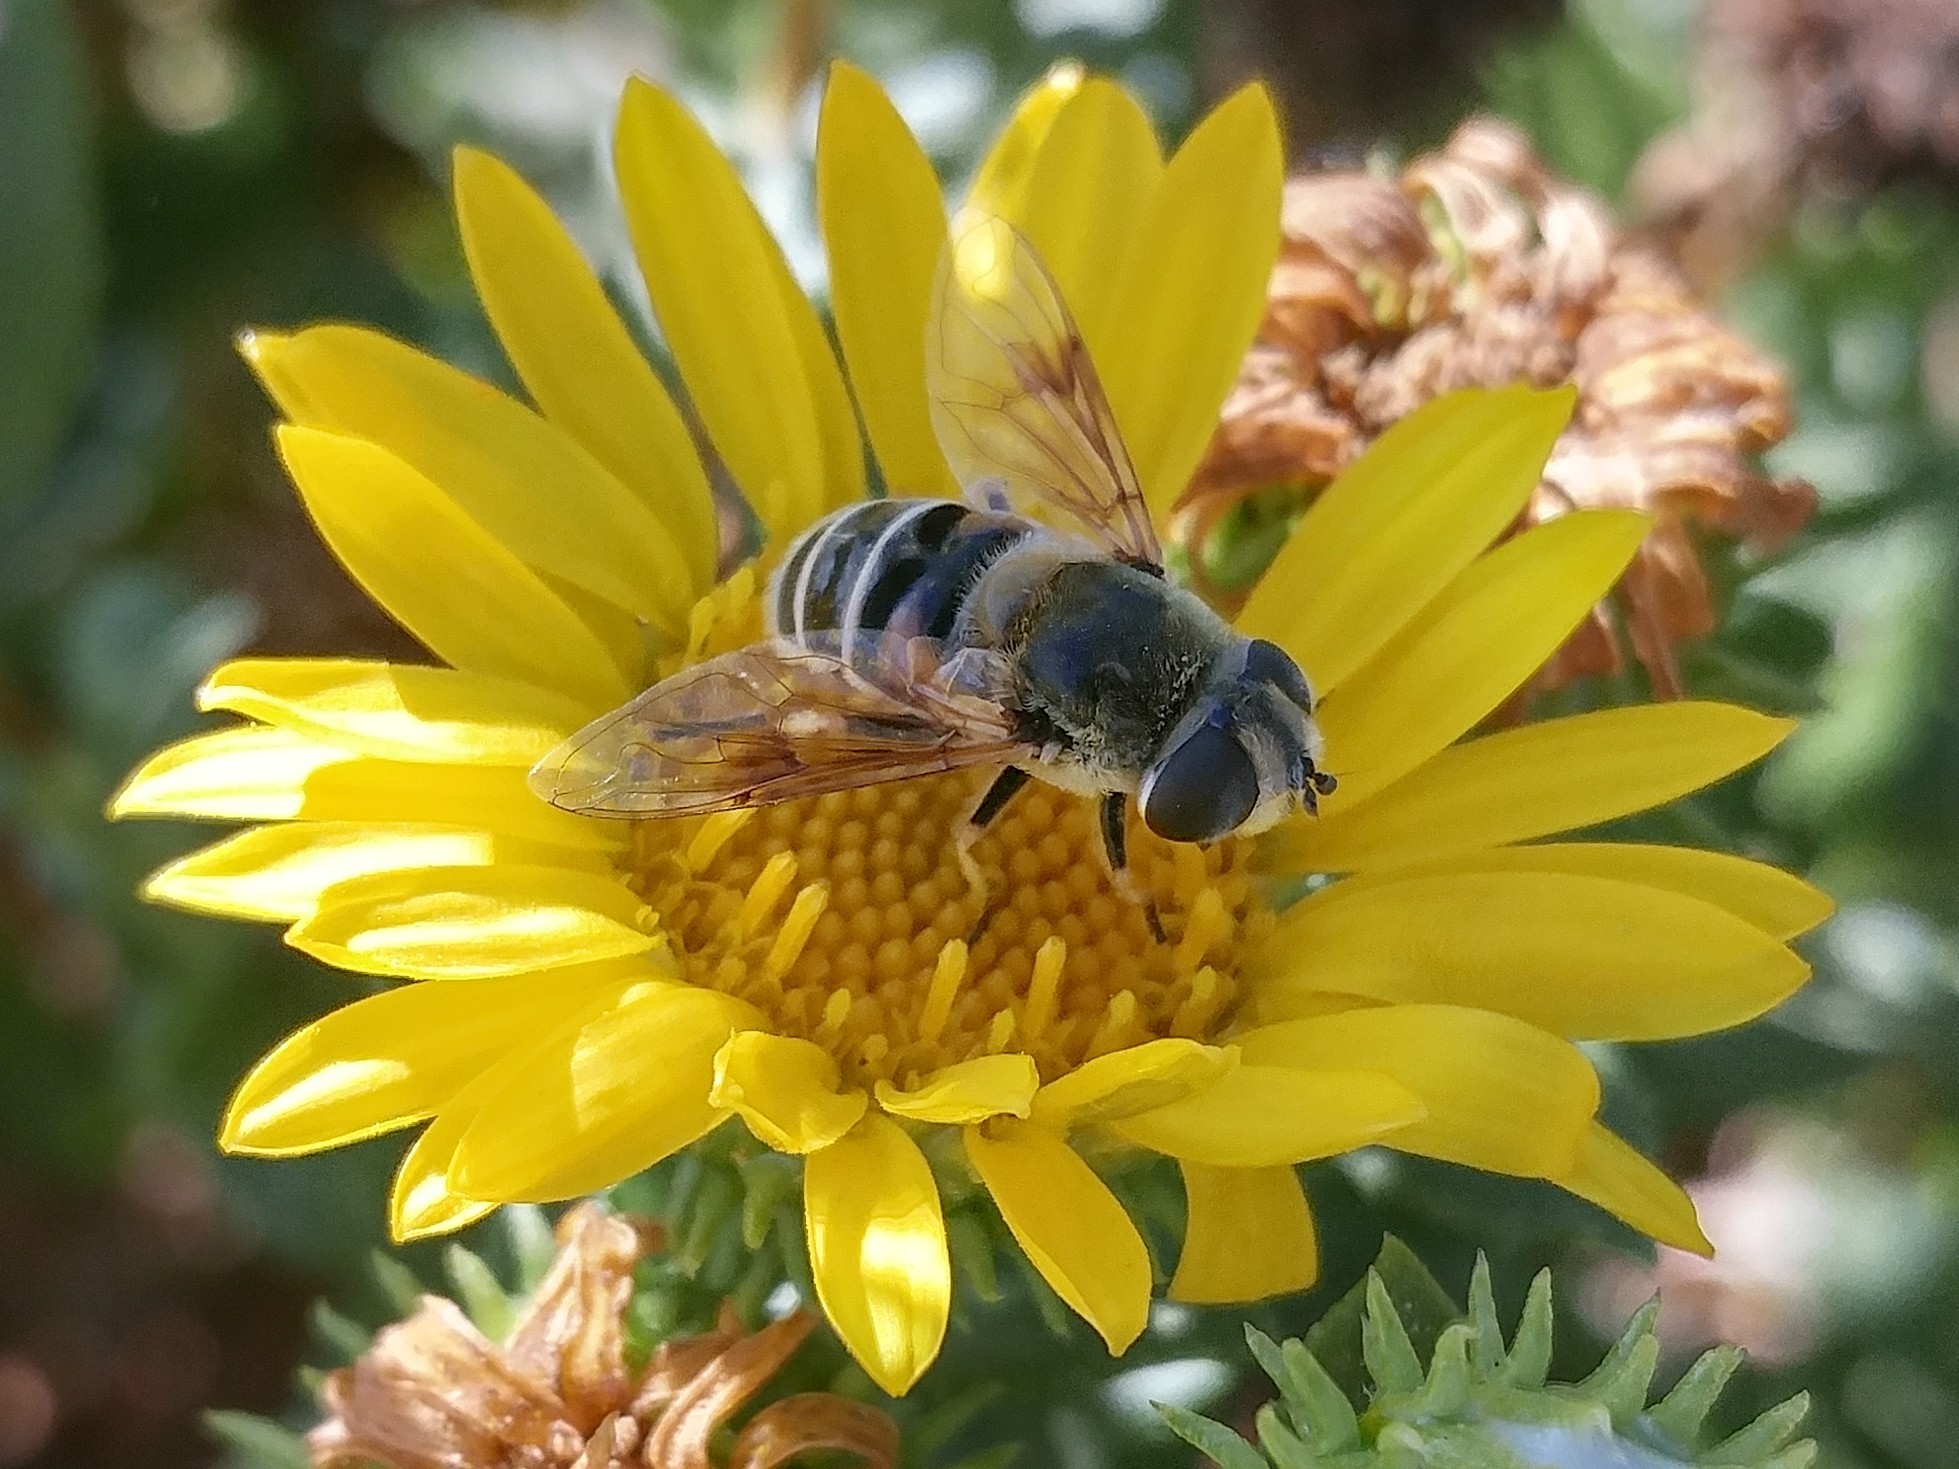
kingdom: Animalia
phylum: Arthropoda
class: Insecta
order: Diptera
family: Syrphidae
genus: Eristalis
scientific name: Eristalis stipator
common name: Yellow-shouldered drone fly
